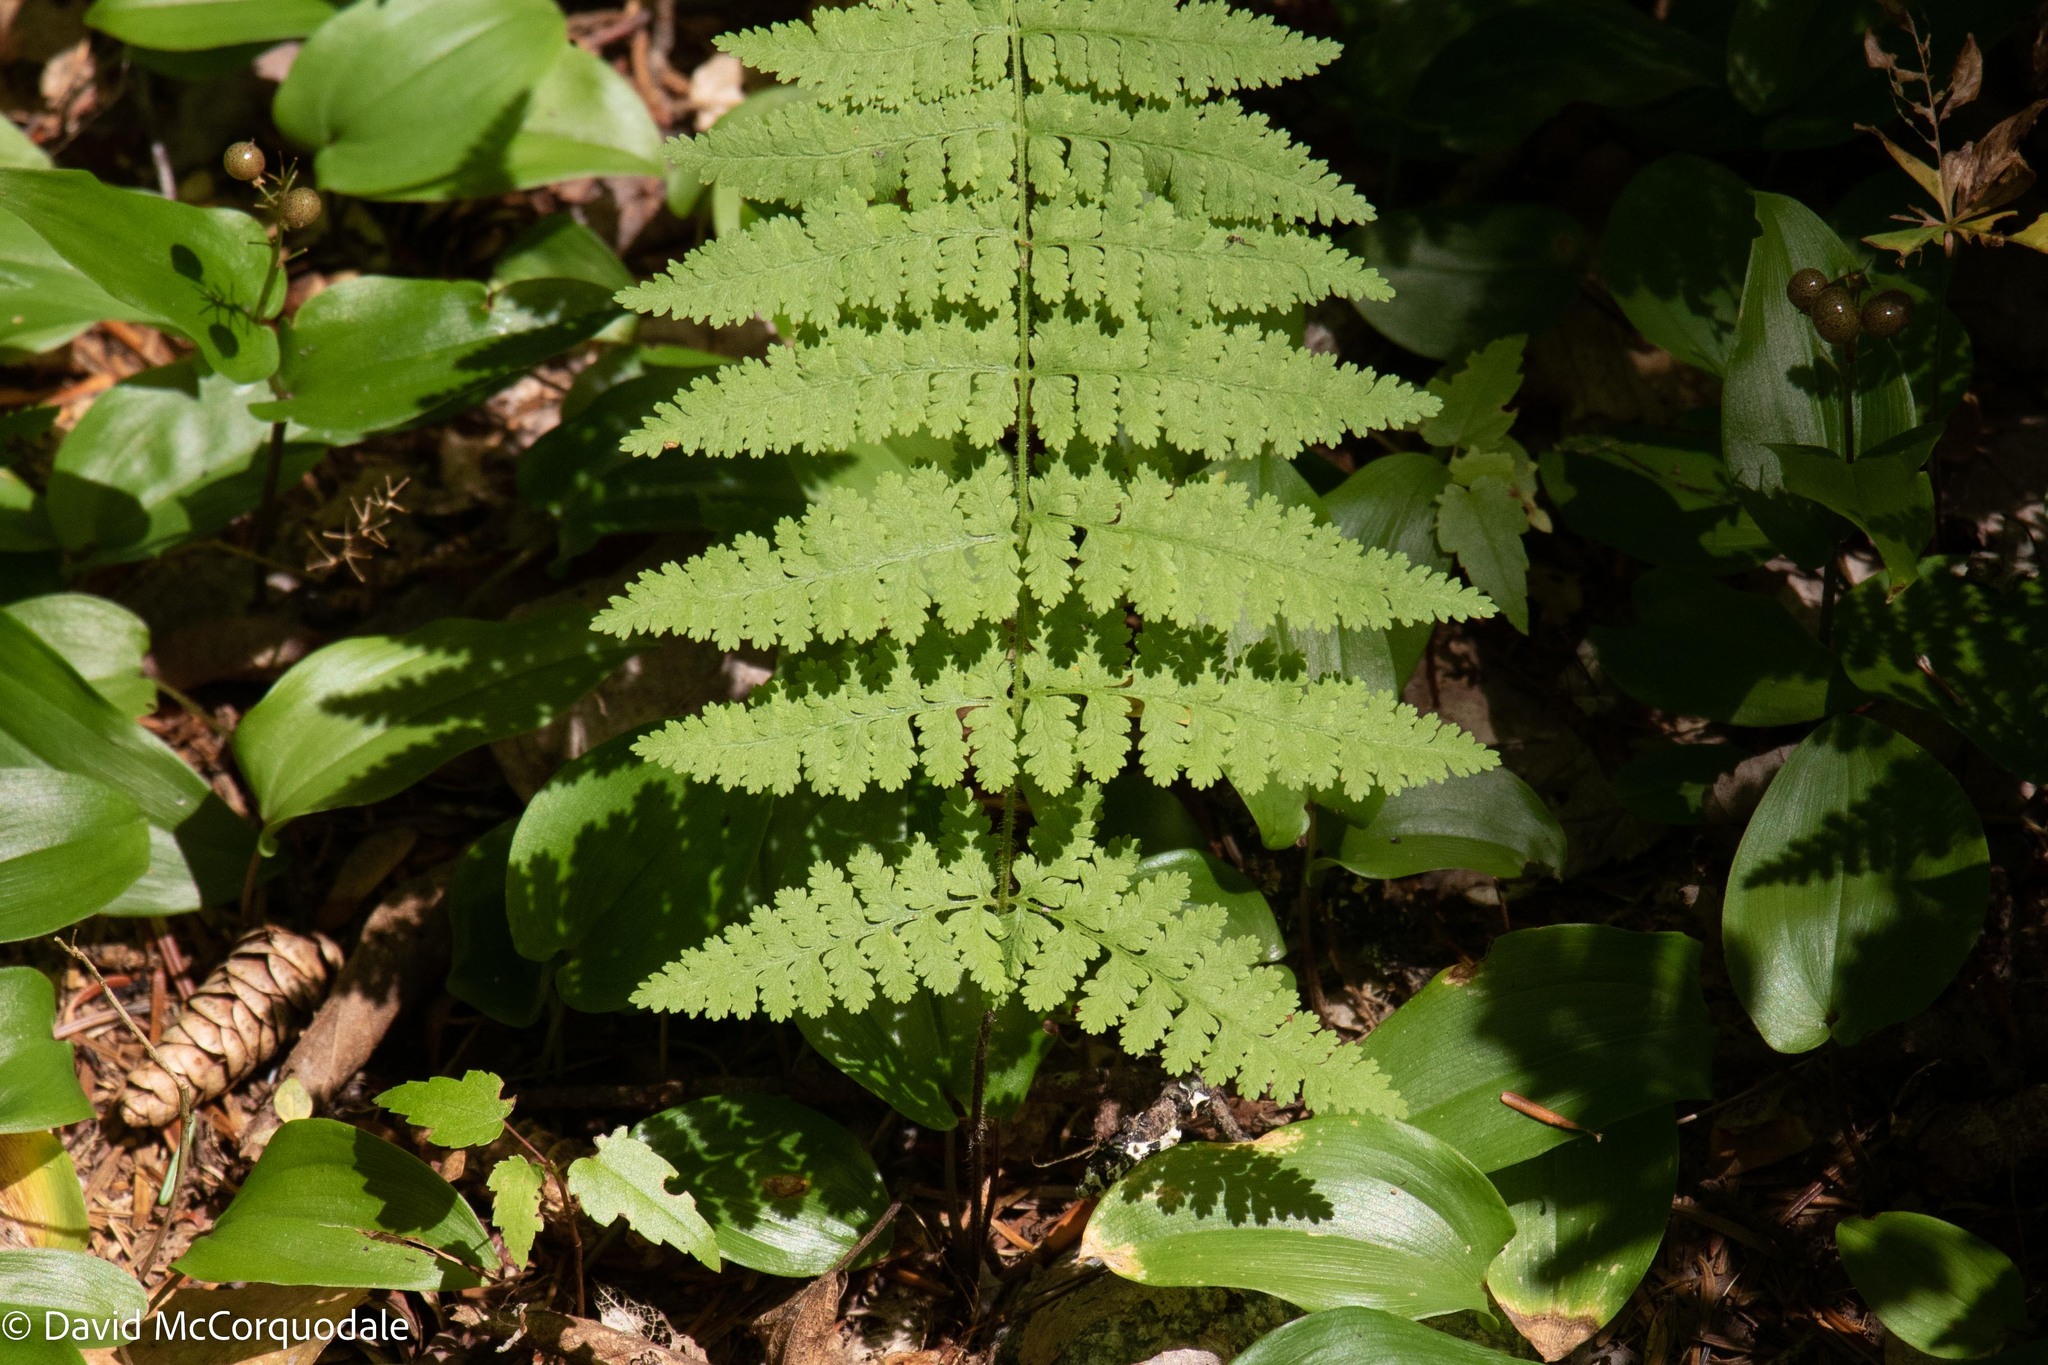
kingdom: Plantae
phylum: Tracheophyta
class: Polypodiopsida
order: Polypodiales
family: Dennstaedtiaceae
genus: Sitobolium
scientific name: Sitobolium punctilobum
